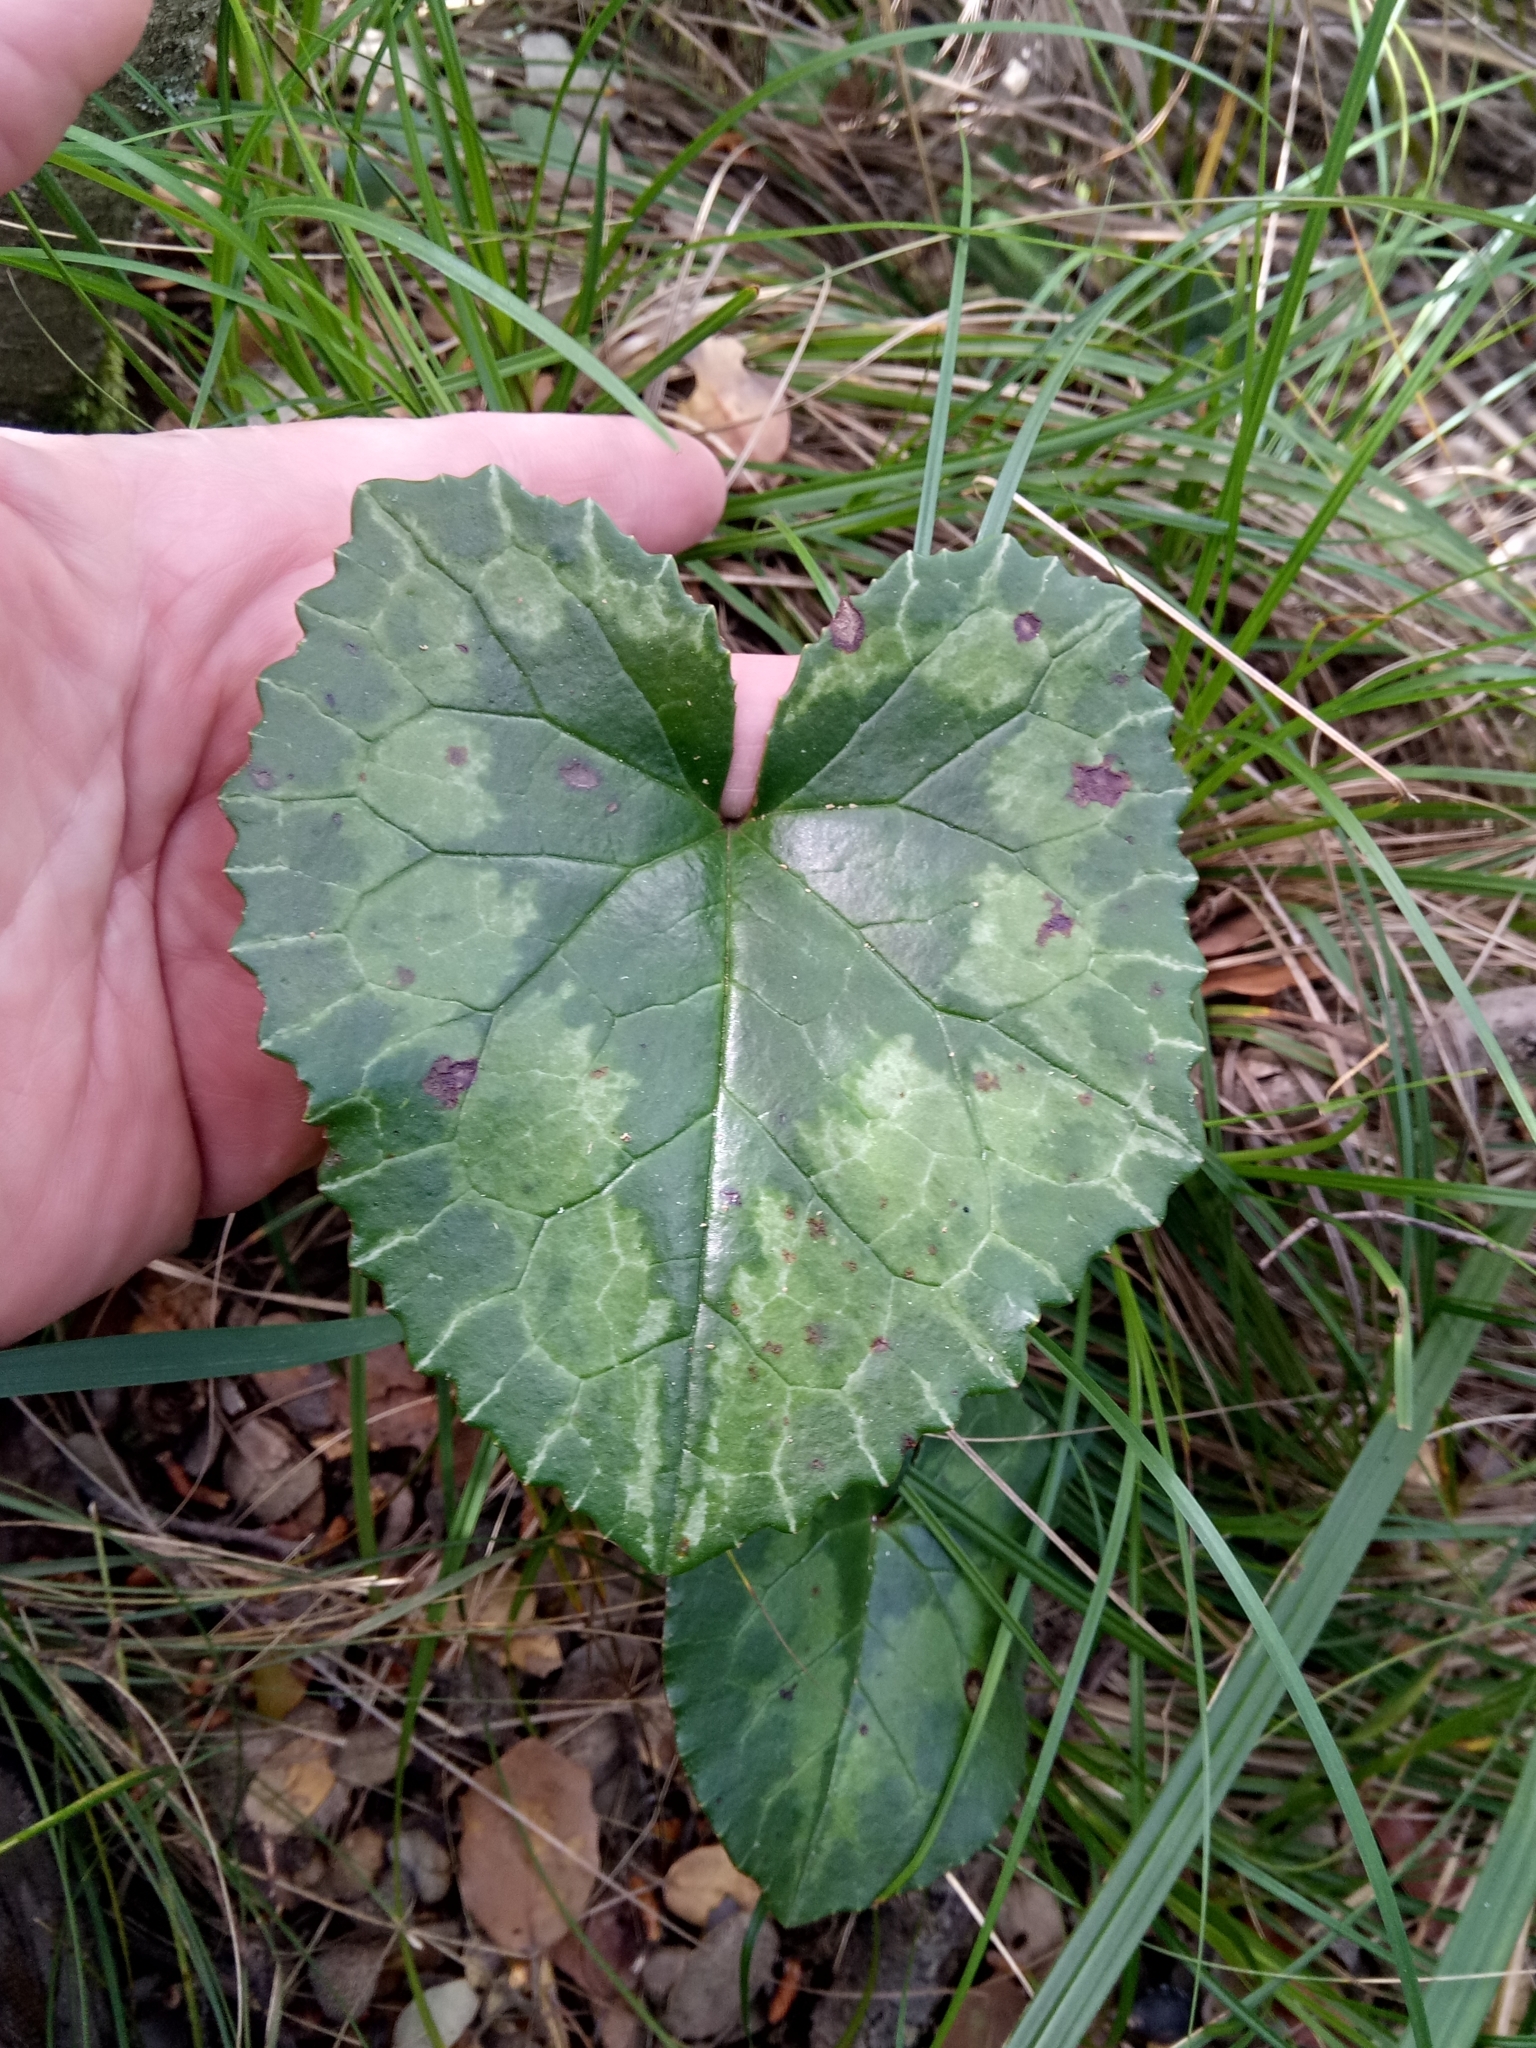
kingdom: Plantae
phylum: Tracheophyta
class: Magnoliopsida
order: Ericales
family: Primulaceae
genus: Cyclamen
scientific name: Cyclamen africanum
